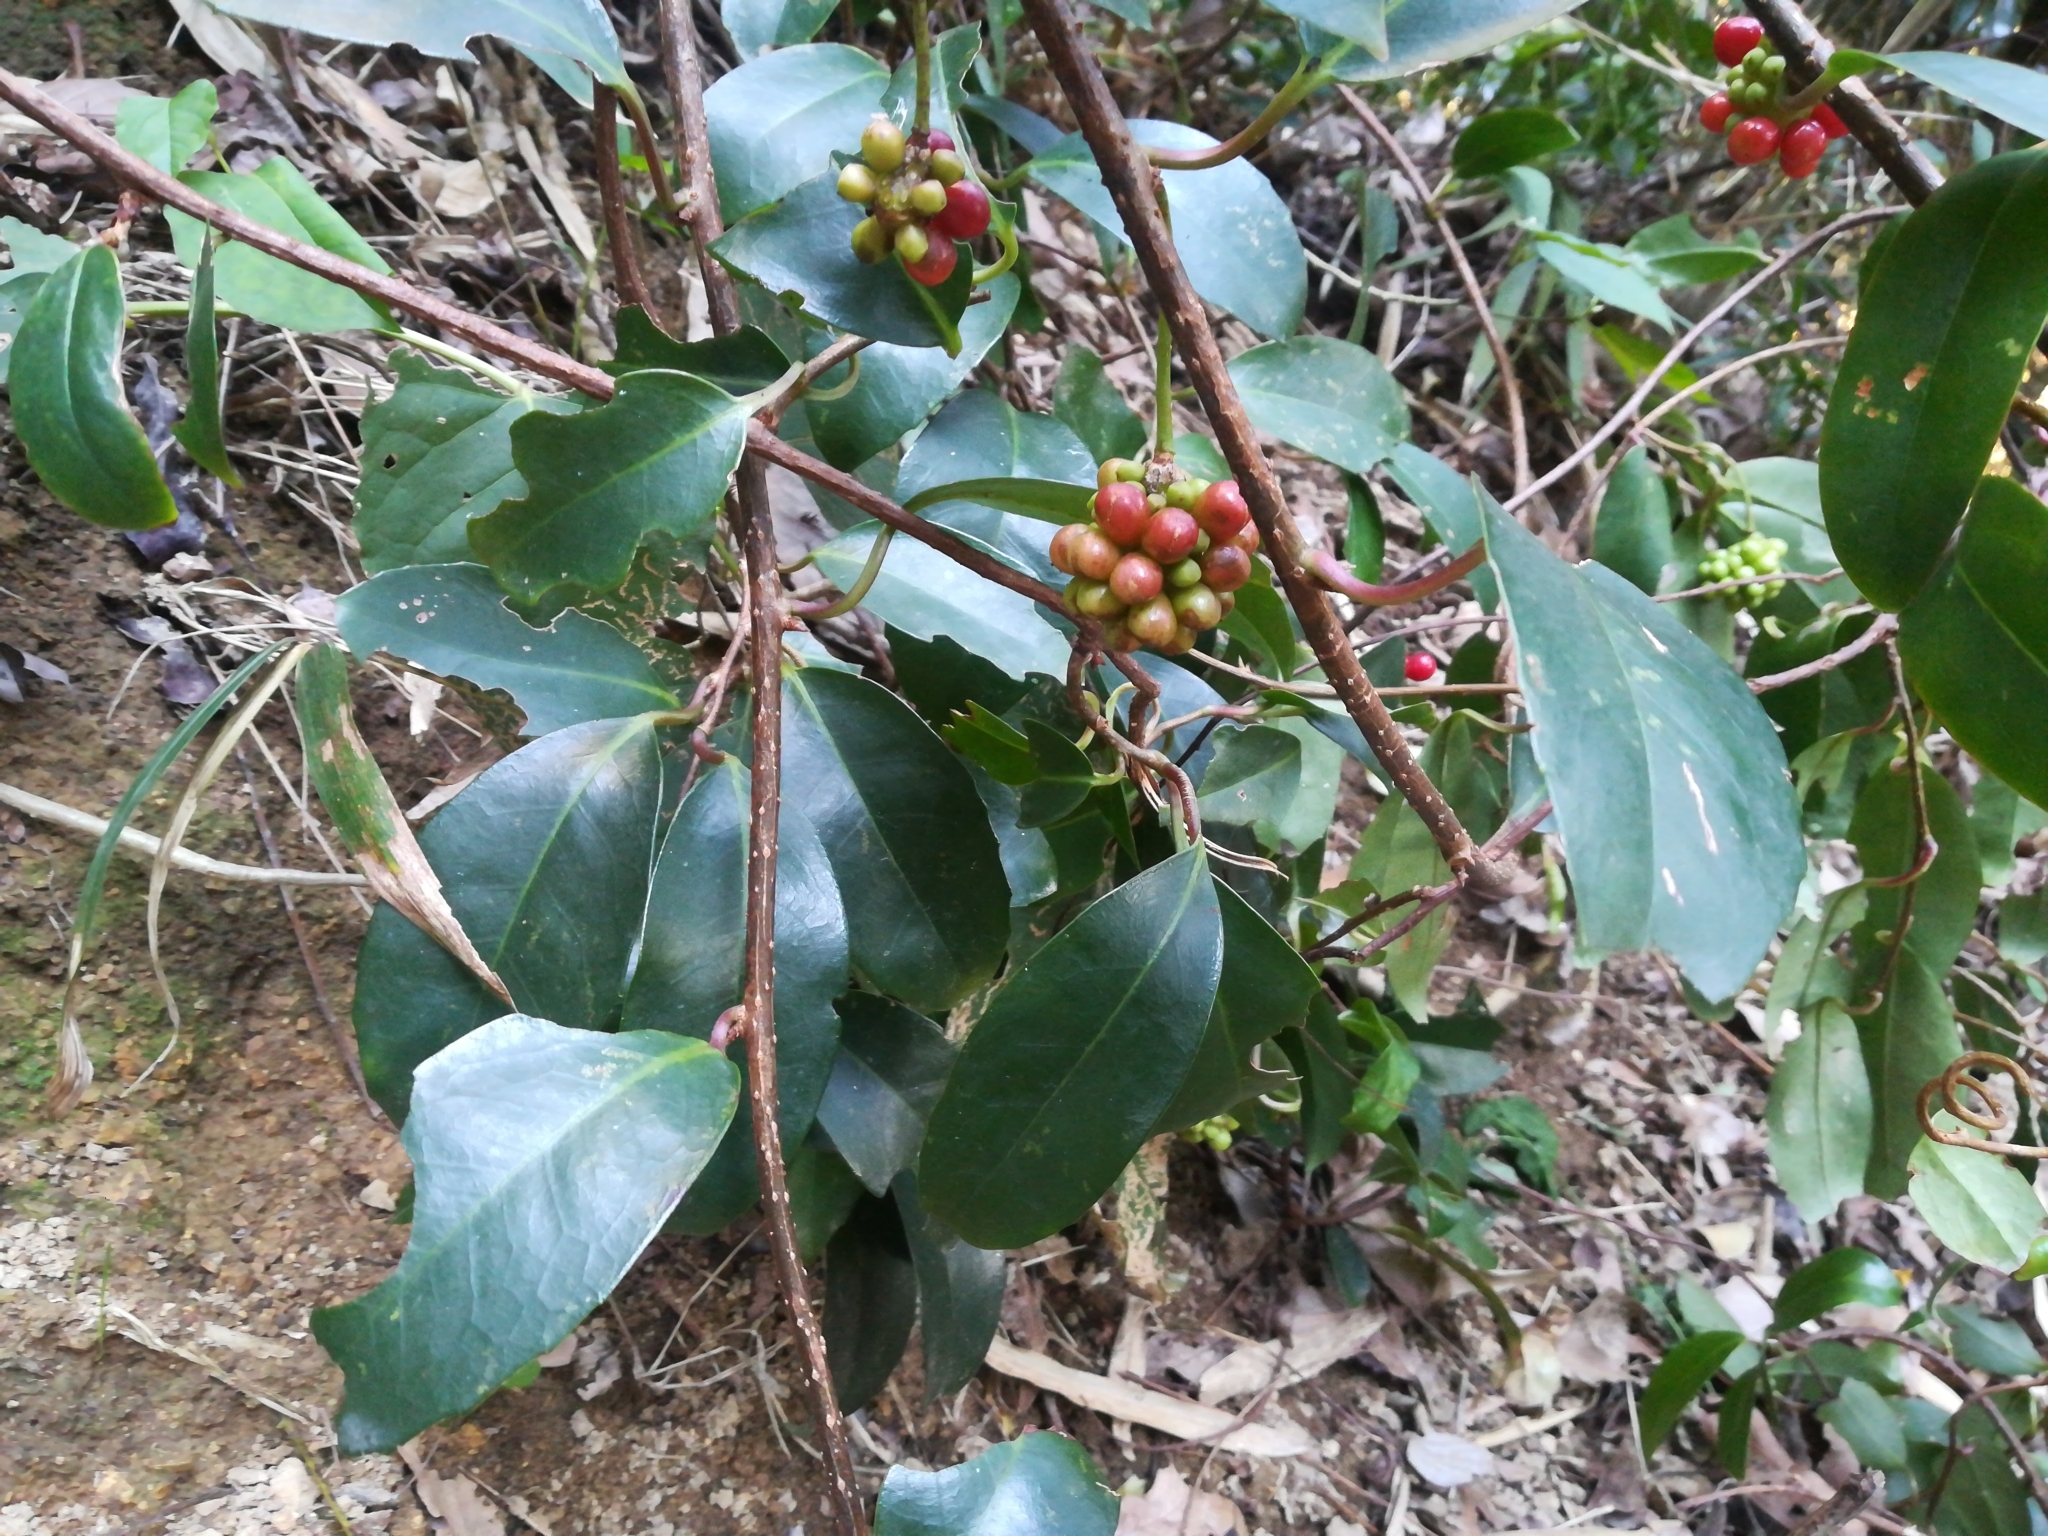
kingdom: Plantae
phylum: Tracheophyta
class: Magnoliopsida
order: Austrobaileyales
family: Schisandraceae
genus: Kadsura
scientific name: Kadsura japonica
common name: Japanese kadsura
